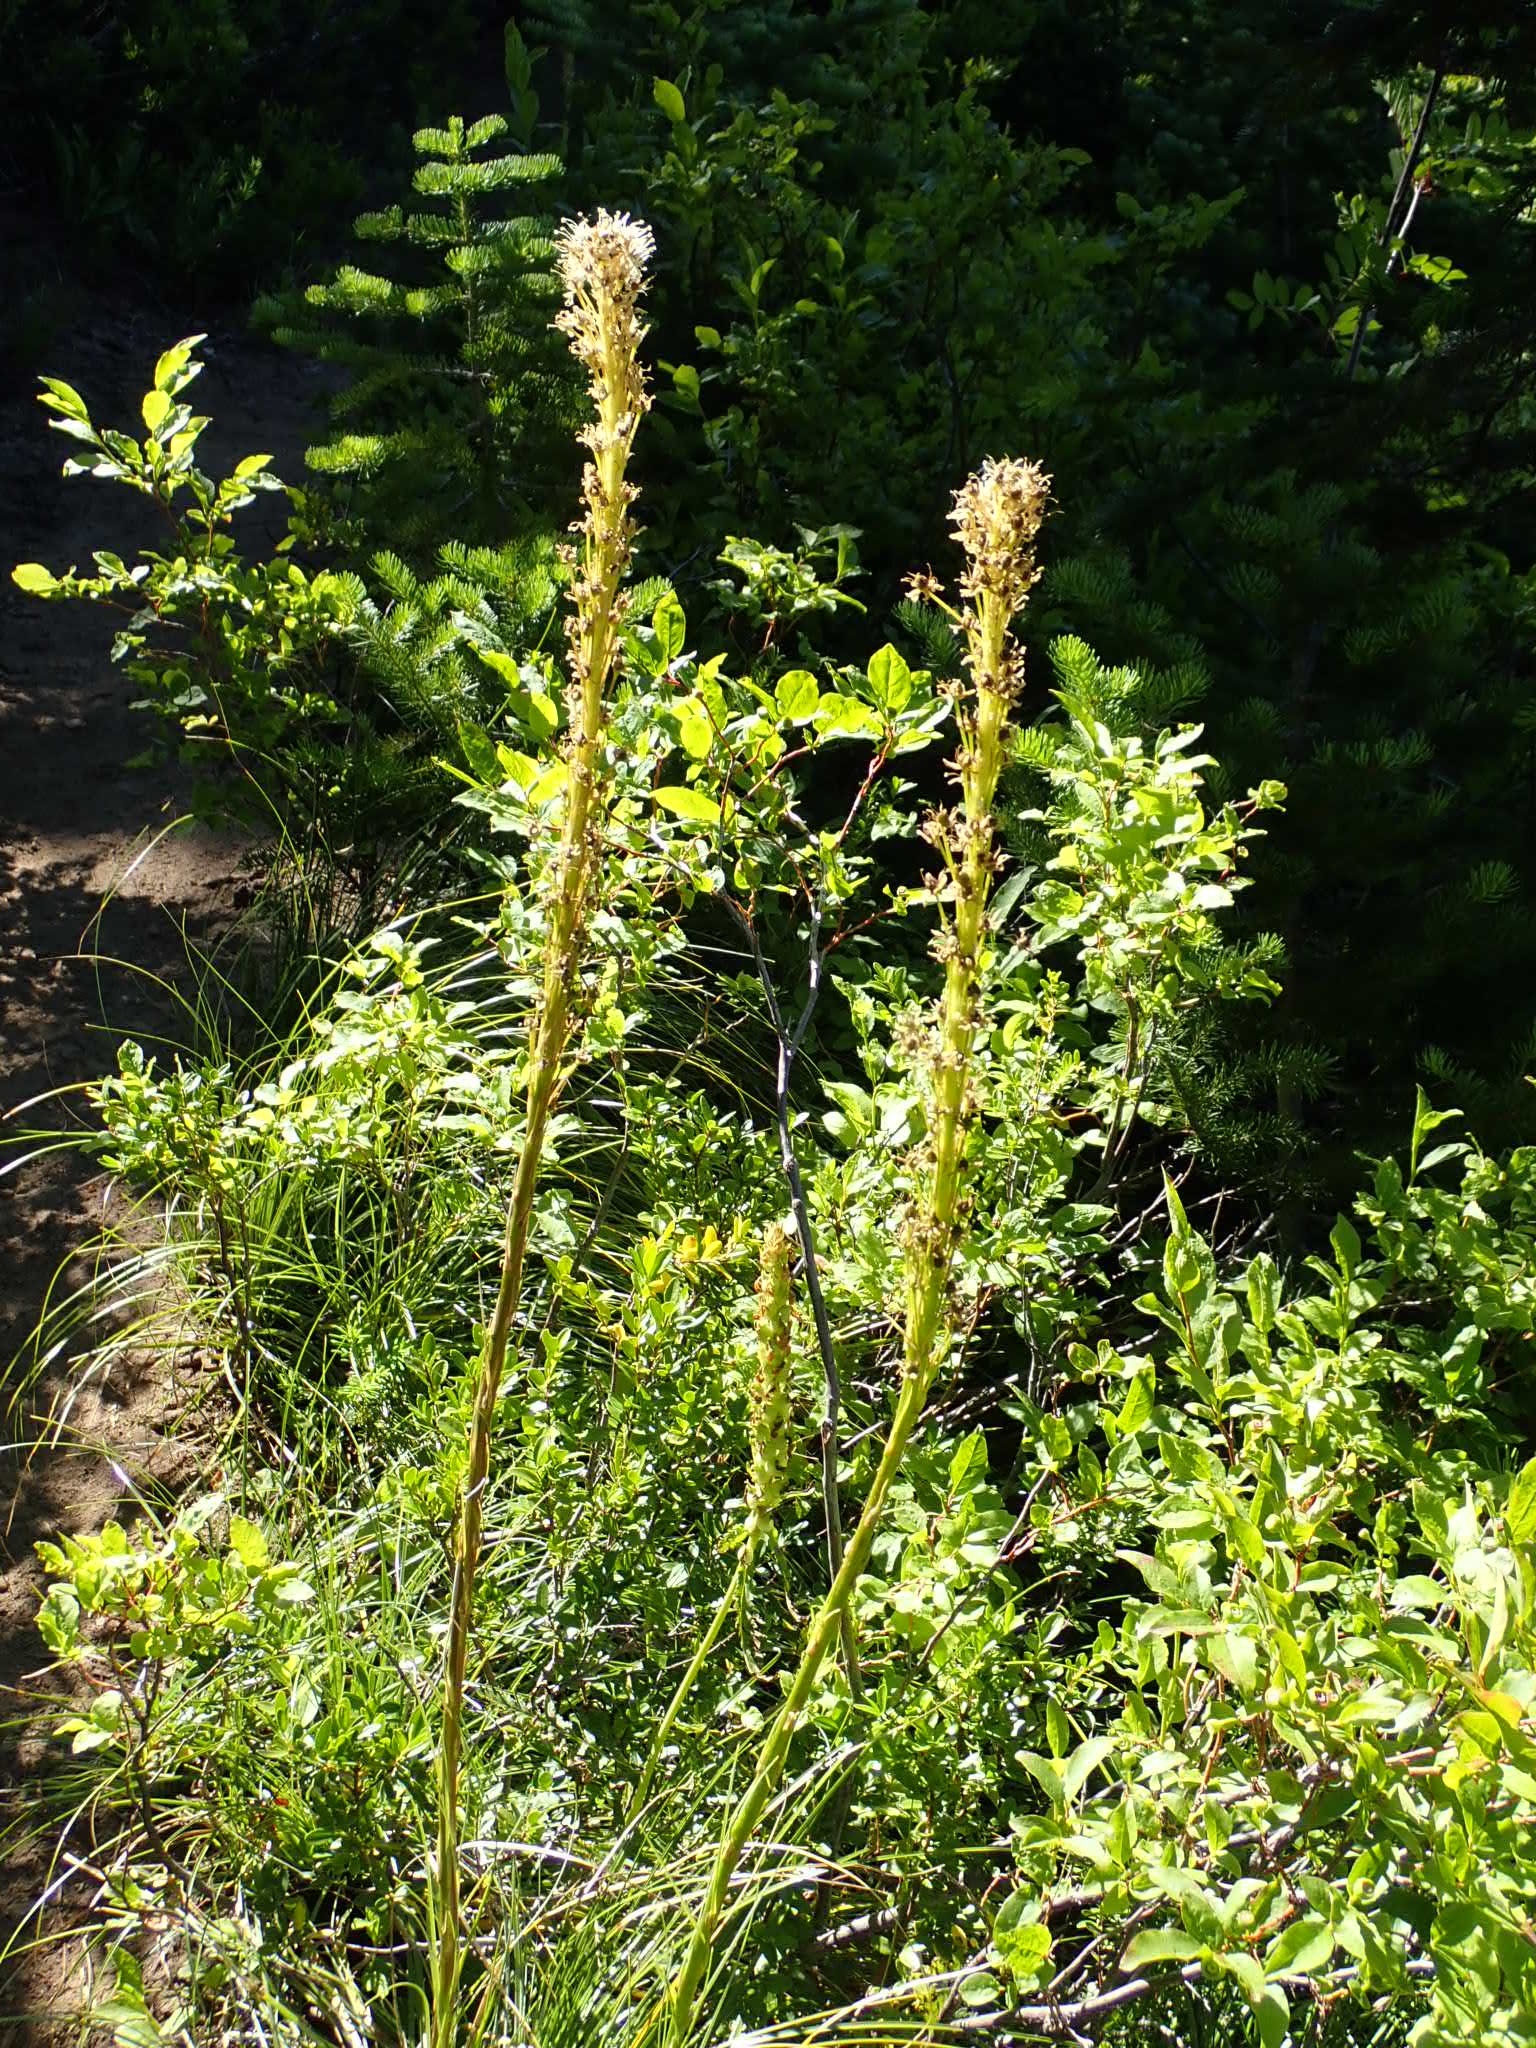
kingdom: Plantae
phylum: Tracheophyta
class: Liliopsida
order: Liliales
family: Melanthiaceae
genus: Xerophyllum
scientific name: Xerophyllum tenax
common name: Bear-grass
